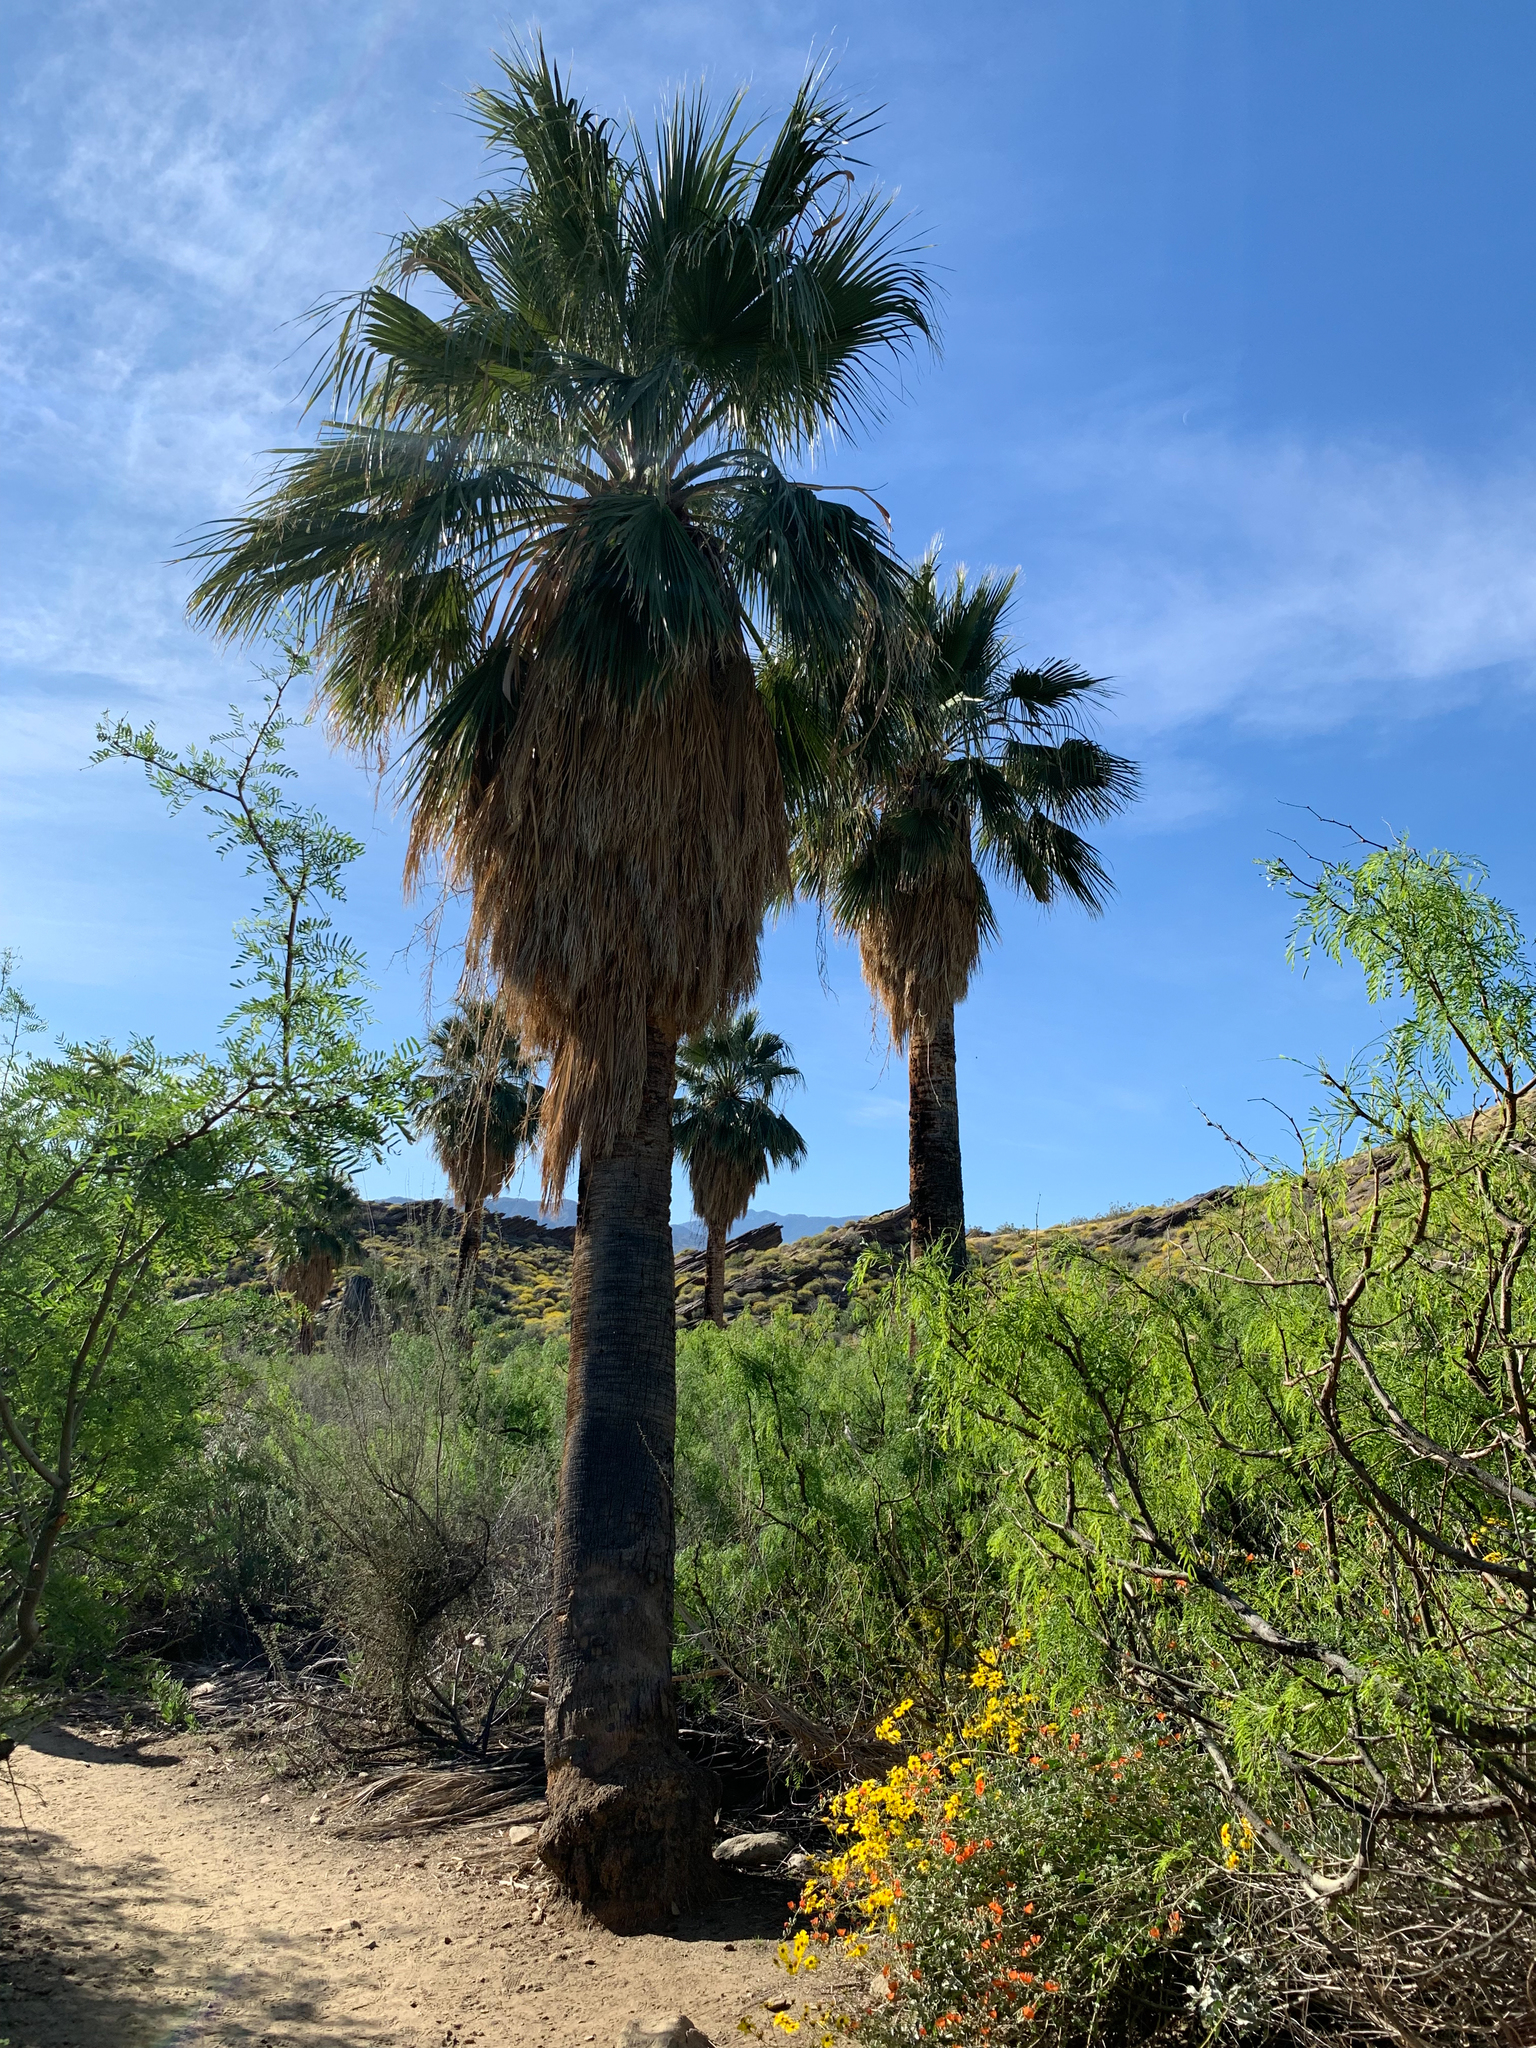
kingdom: Plantae
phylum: Tracheophyta
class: Liliopsida
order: Arecales
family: Arecaceae
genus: Washingtonia
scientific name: Washingtonia filifera
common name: California fan palm
